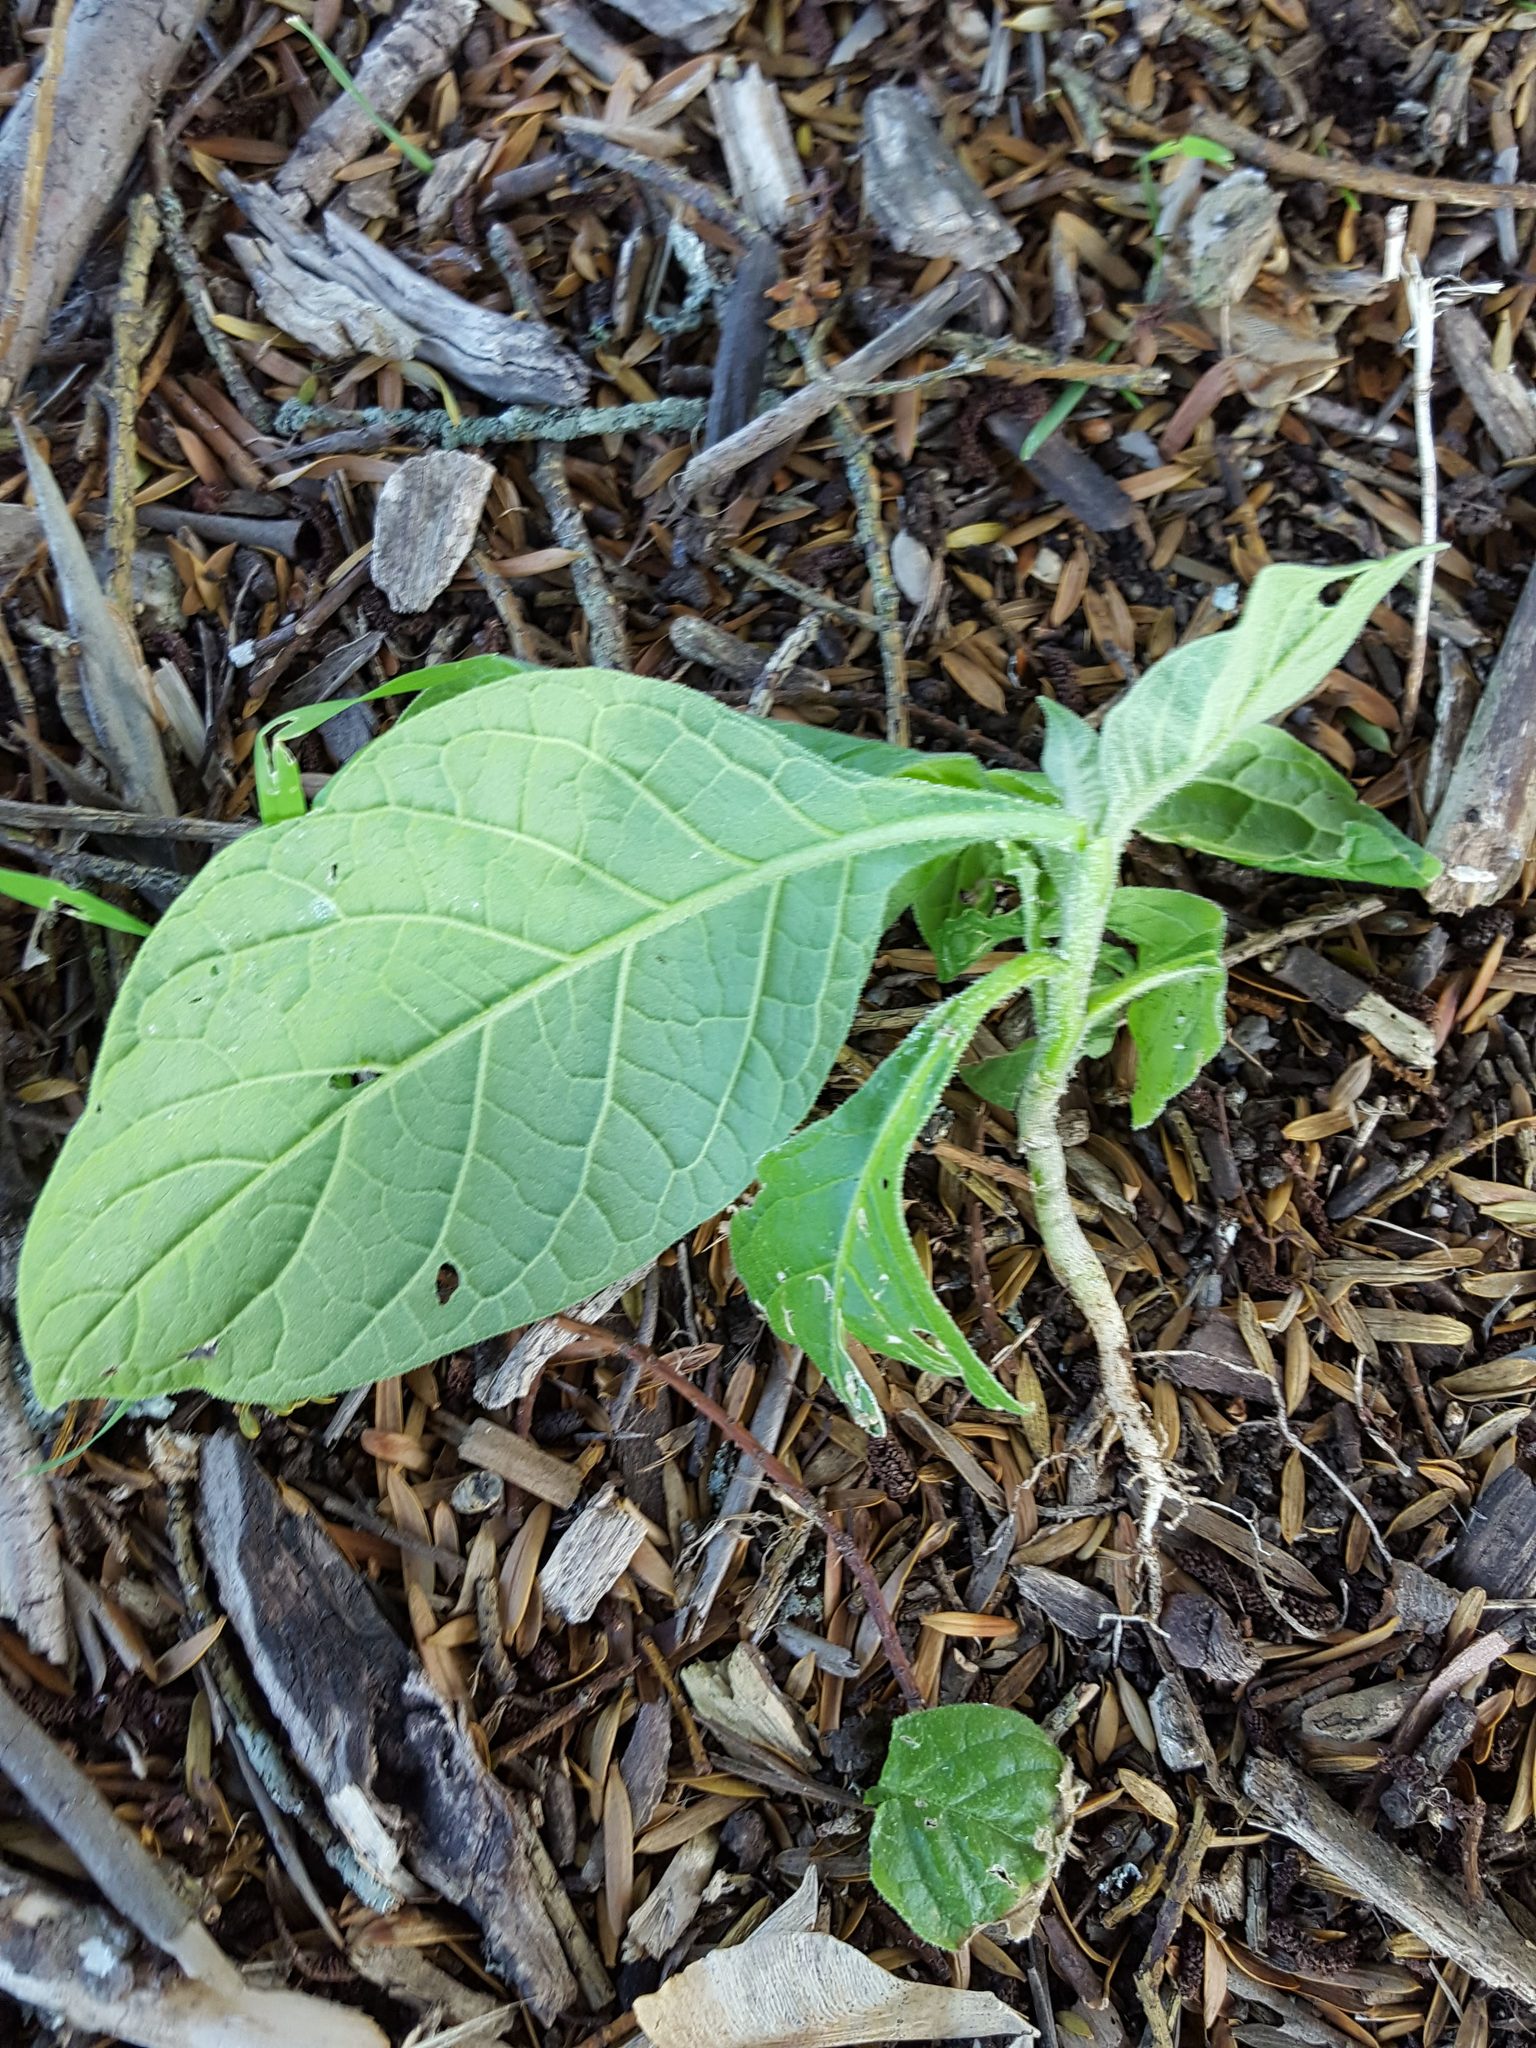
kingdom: Plantae
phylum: Tracheophyta
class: Magnoliopsida
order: Solanales
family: Solanaceae
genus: Solanum
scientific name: Solanum mauritianum
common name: Earleaf nightshade
